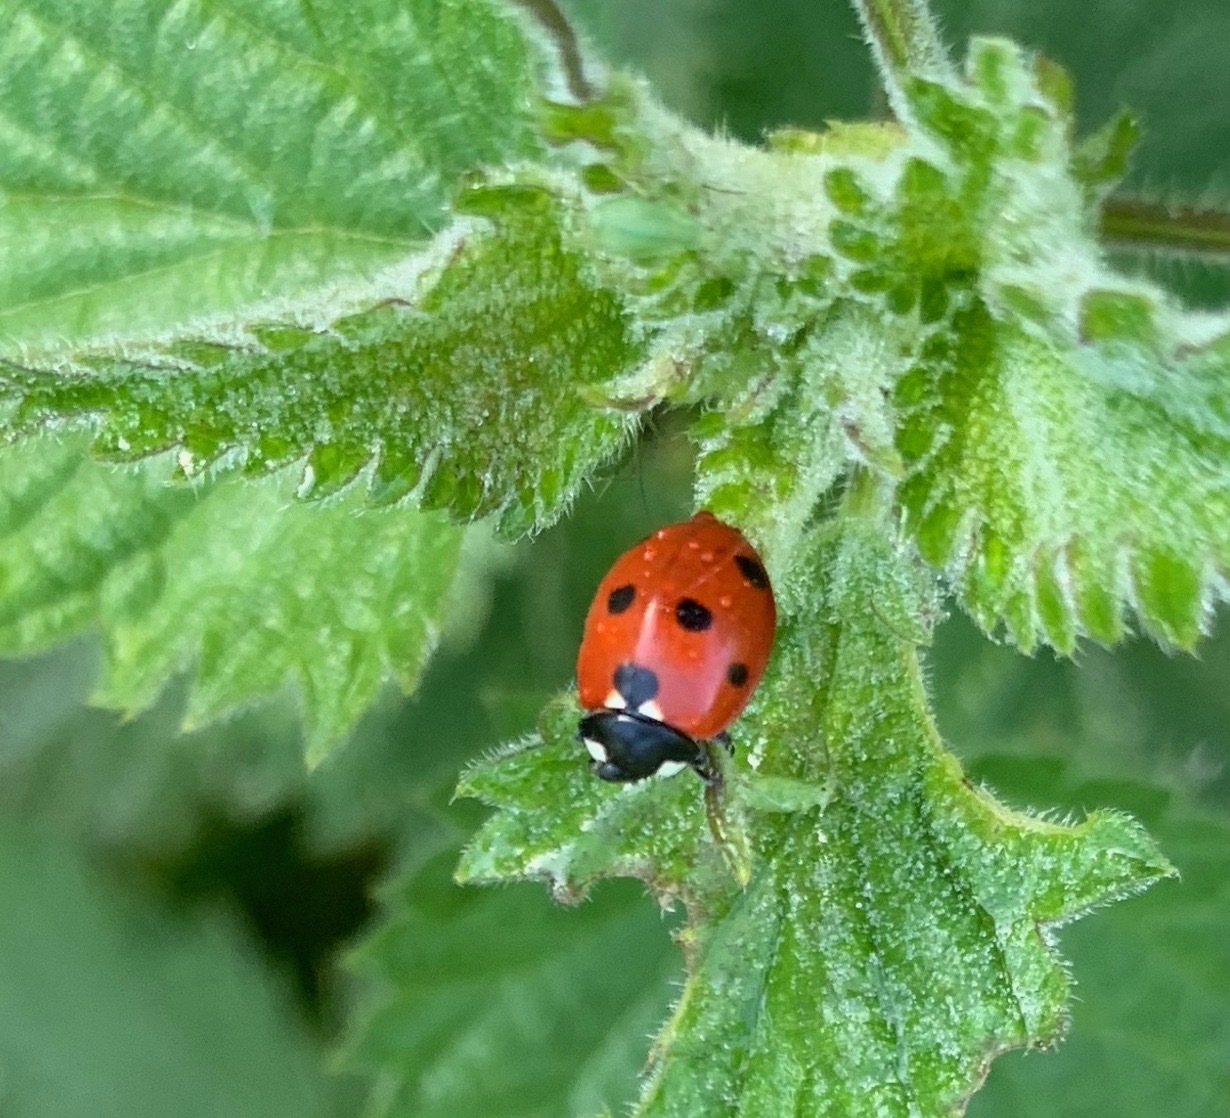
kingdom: Animalia
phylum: Arthropoda
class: Insecta
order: Coleoptera
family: Coccinellidae
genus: Coccinella
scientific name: Coccinella septempunctata
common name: Sevenspotted lady beetle
